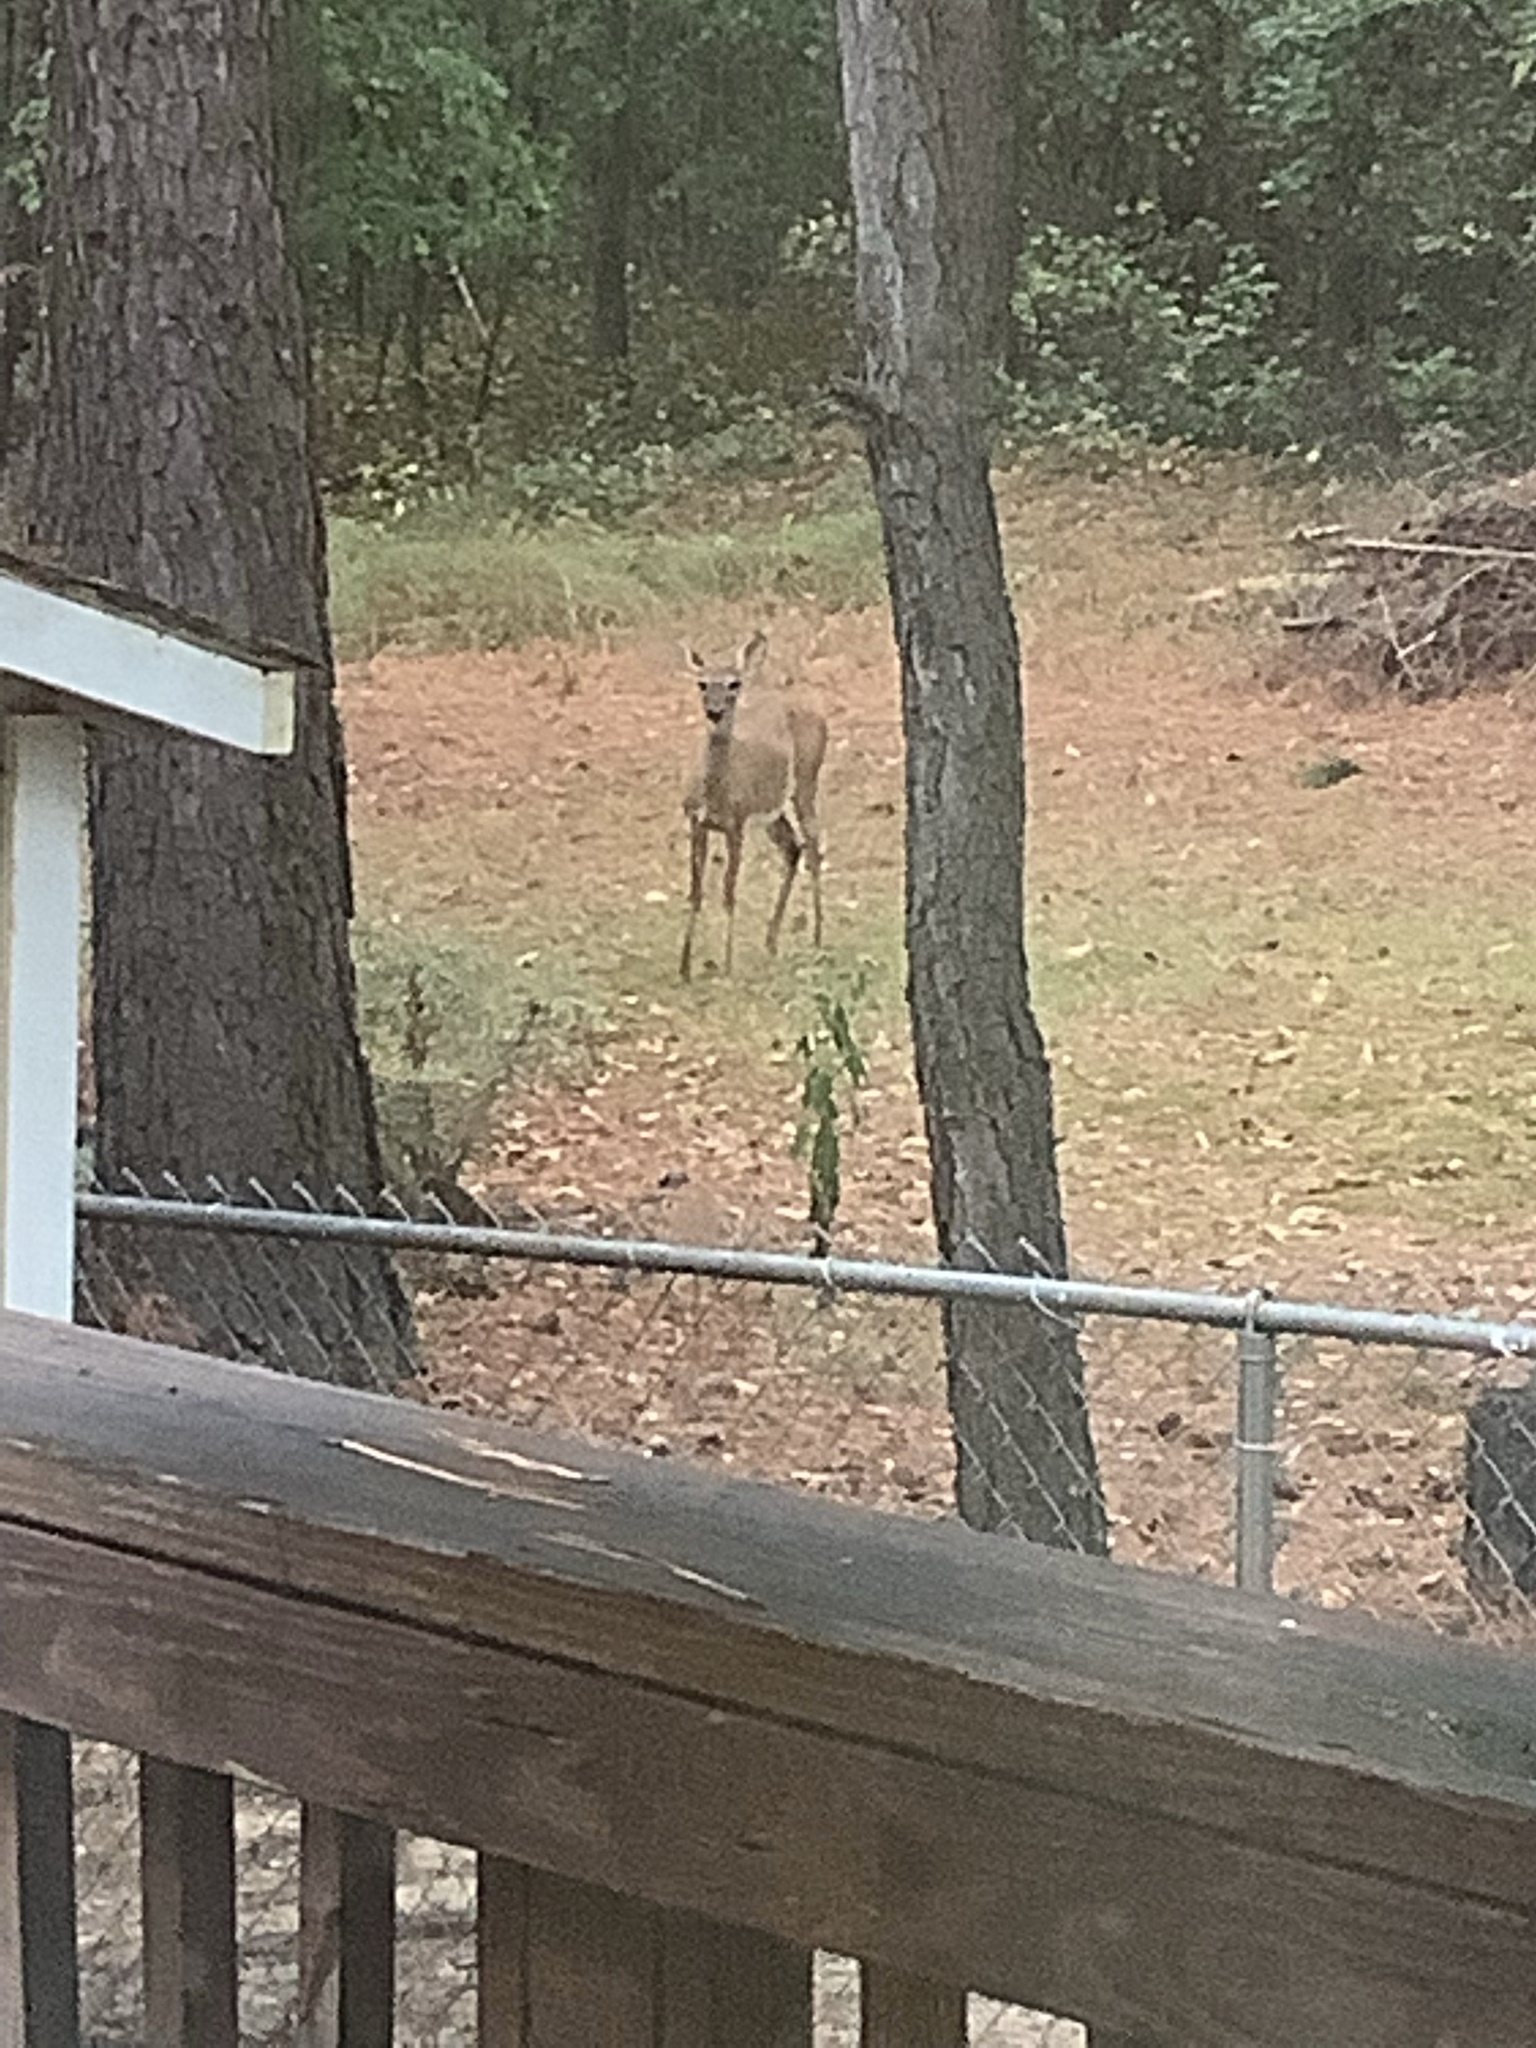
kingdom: Animalia
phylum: Chordata
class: Mammalia
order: Artiodactyla
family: Cervidae
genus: Odocoileus
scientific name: Odocoileus virginianus
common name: White-tailed deer
